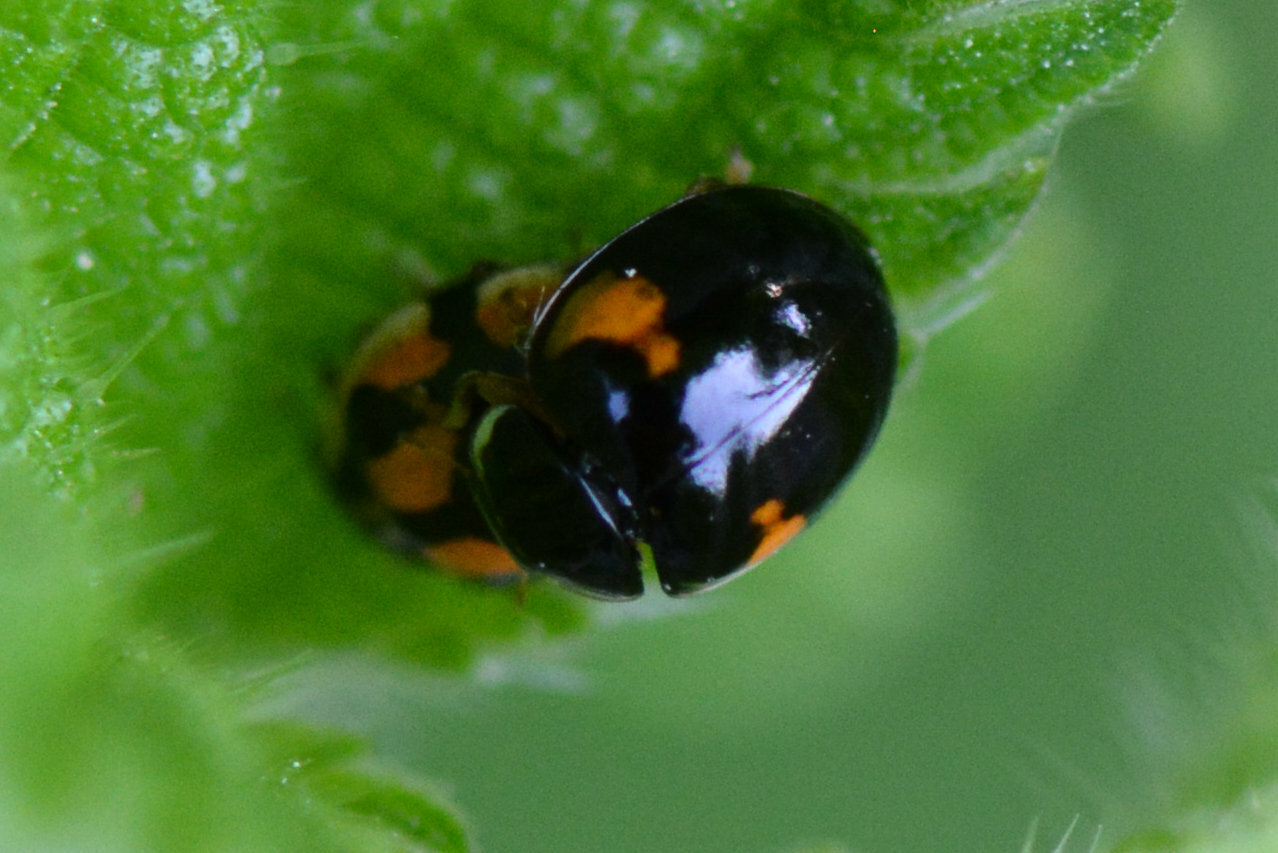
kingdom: Animalia
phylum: Arthropoda
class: Insecta
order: Coleoptera
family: Coccinellidae
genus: Adalia
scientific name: Adalia decempunctata
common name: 10-spot ladybird
